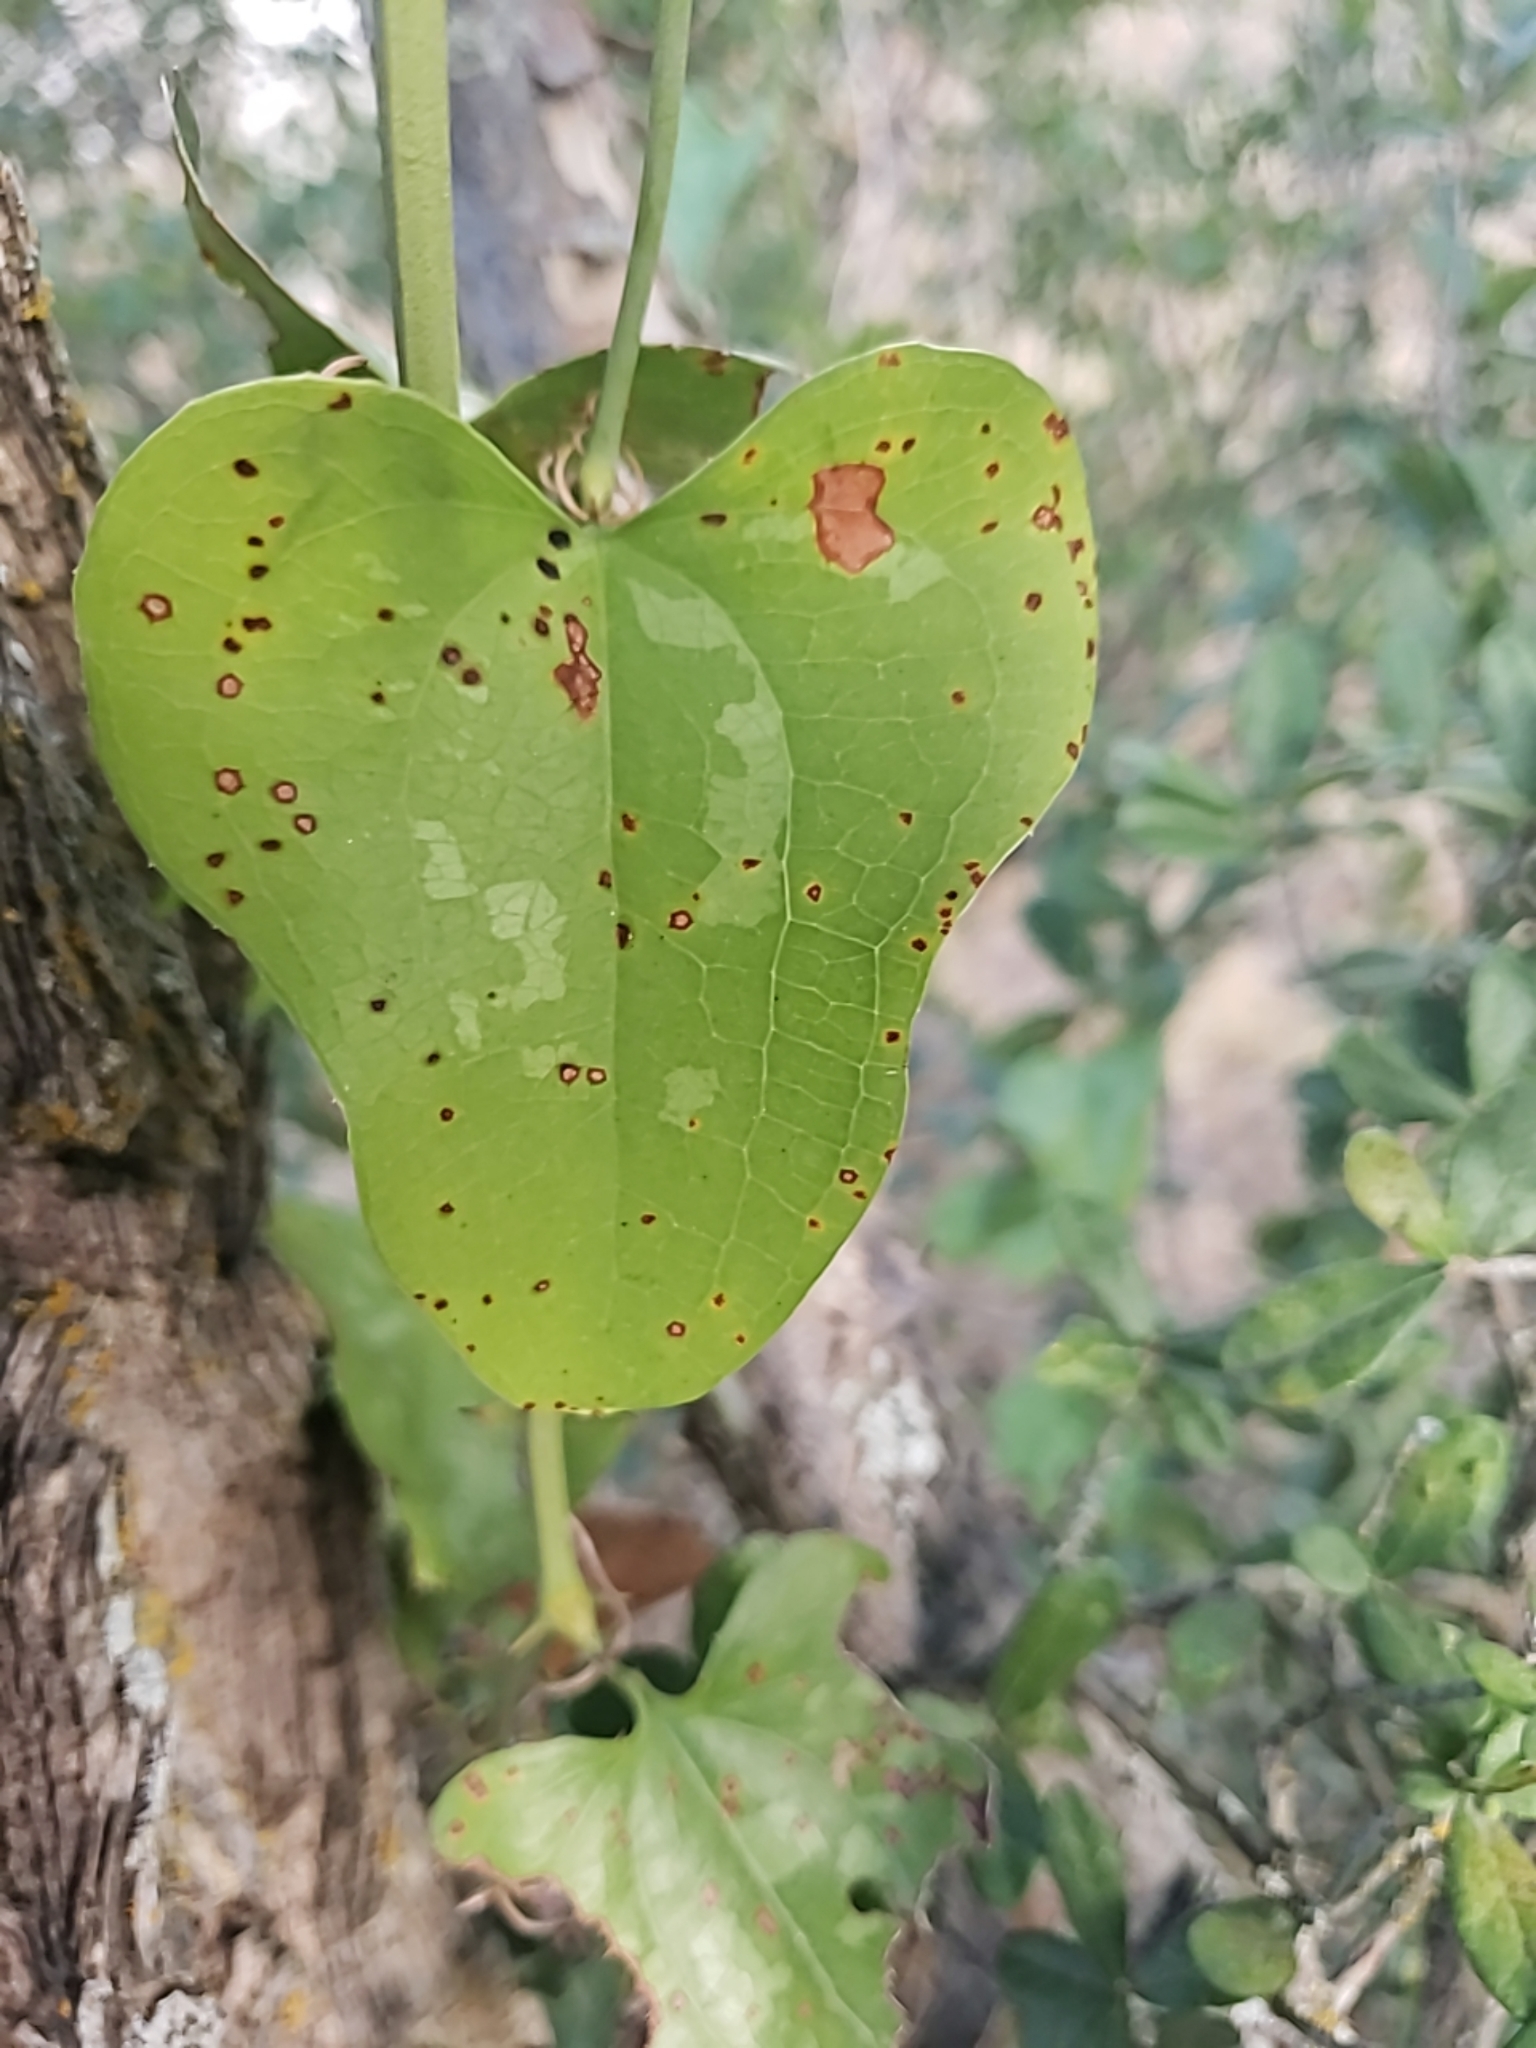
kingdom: Plantae
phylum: Tracheophyta
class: Liliopsida
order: Liliales
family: Smilacaceae
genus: Smilax
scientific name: Smilax bona-nox
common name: Catbrier
